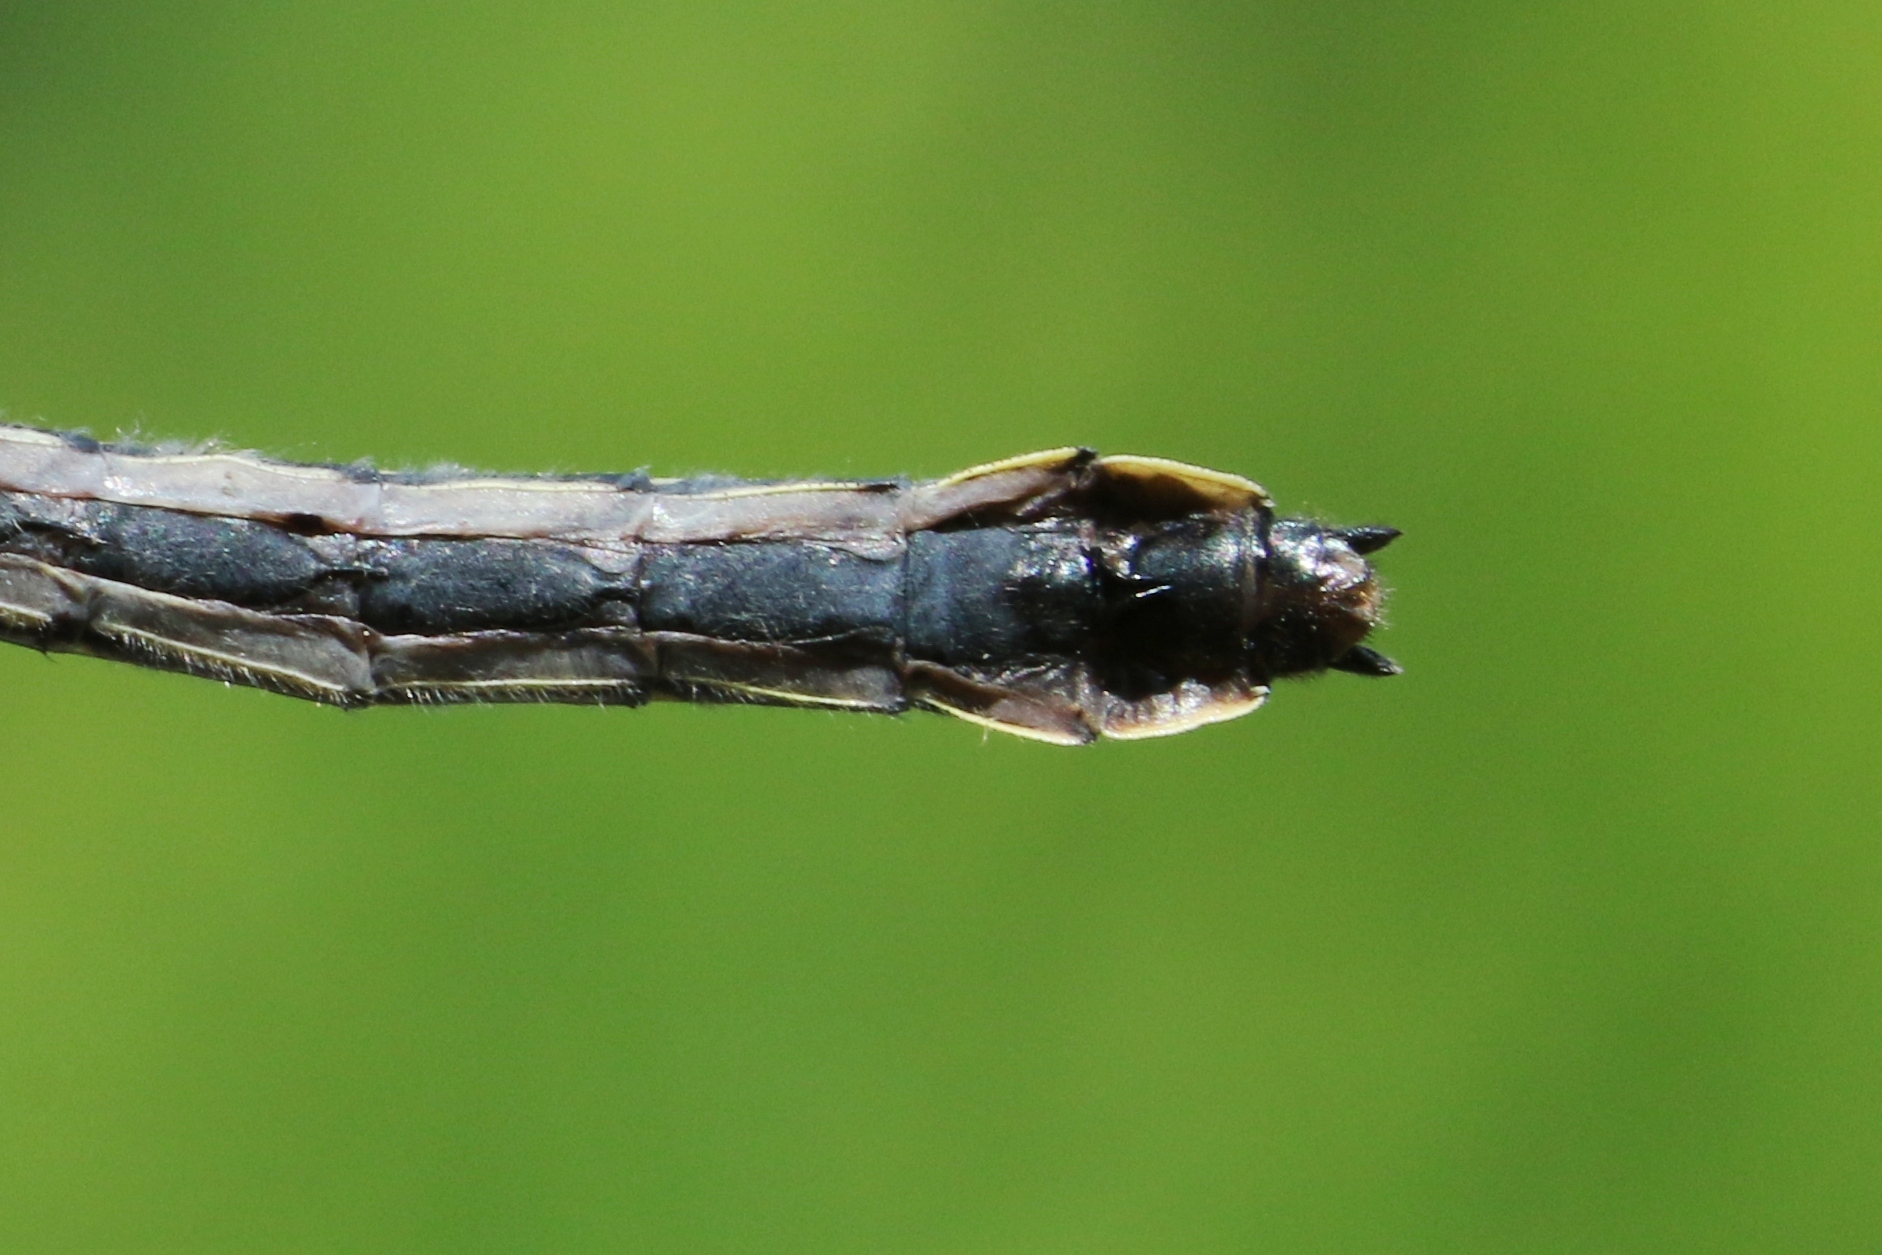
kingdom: Animalia
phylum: Arthropoda
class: Insecta
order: Odonata
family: Gomphidae
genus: Hylogomphus
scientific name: Hylogomphus adelphus
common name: Mustached clubtail
